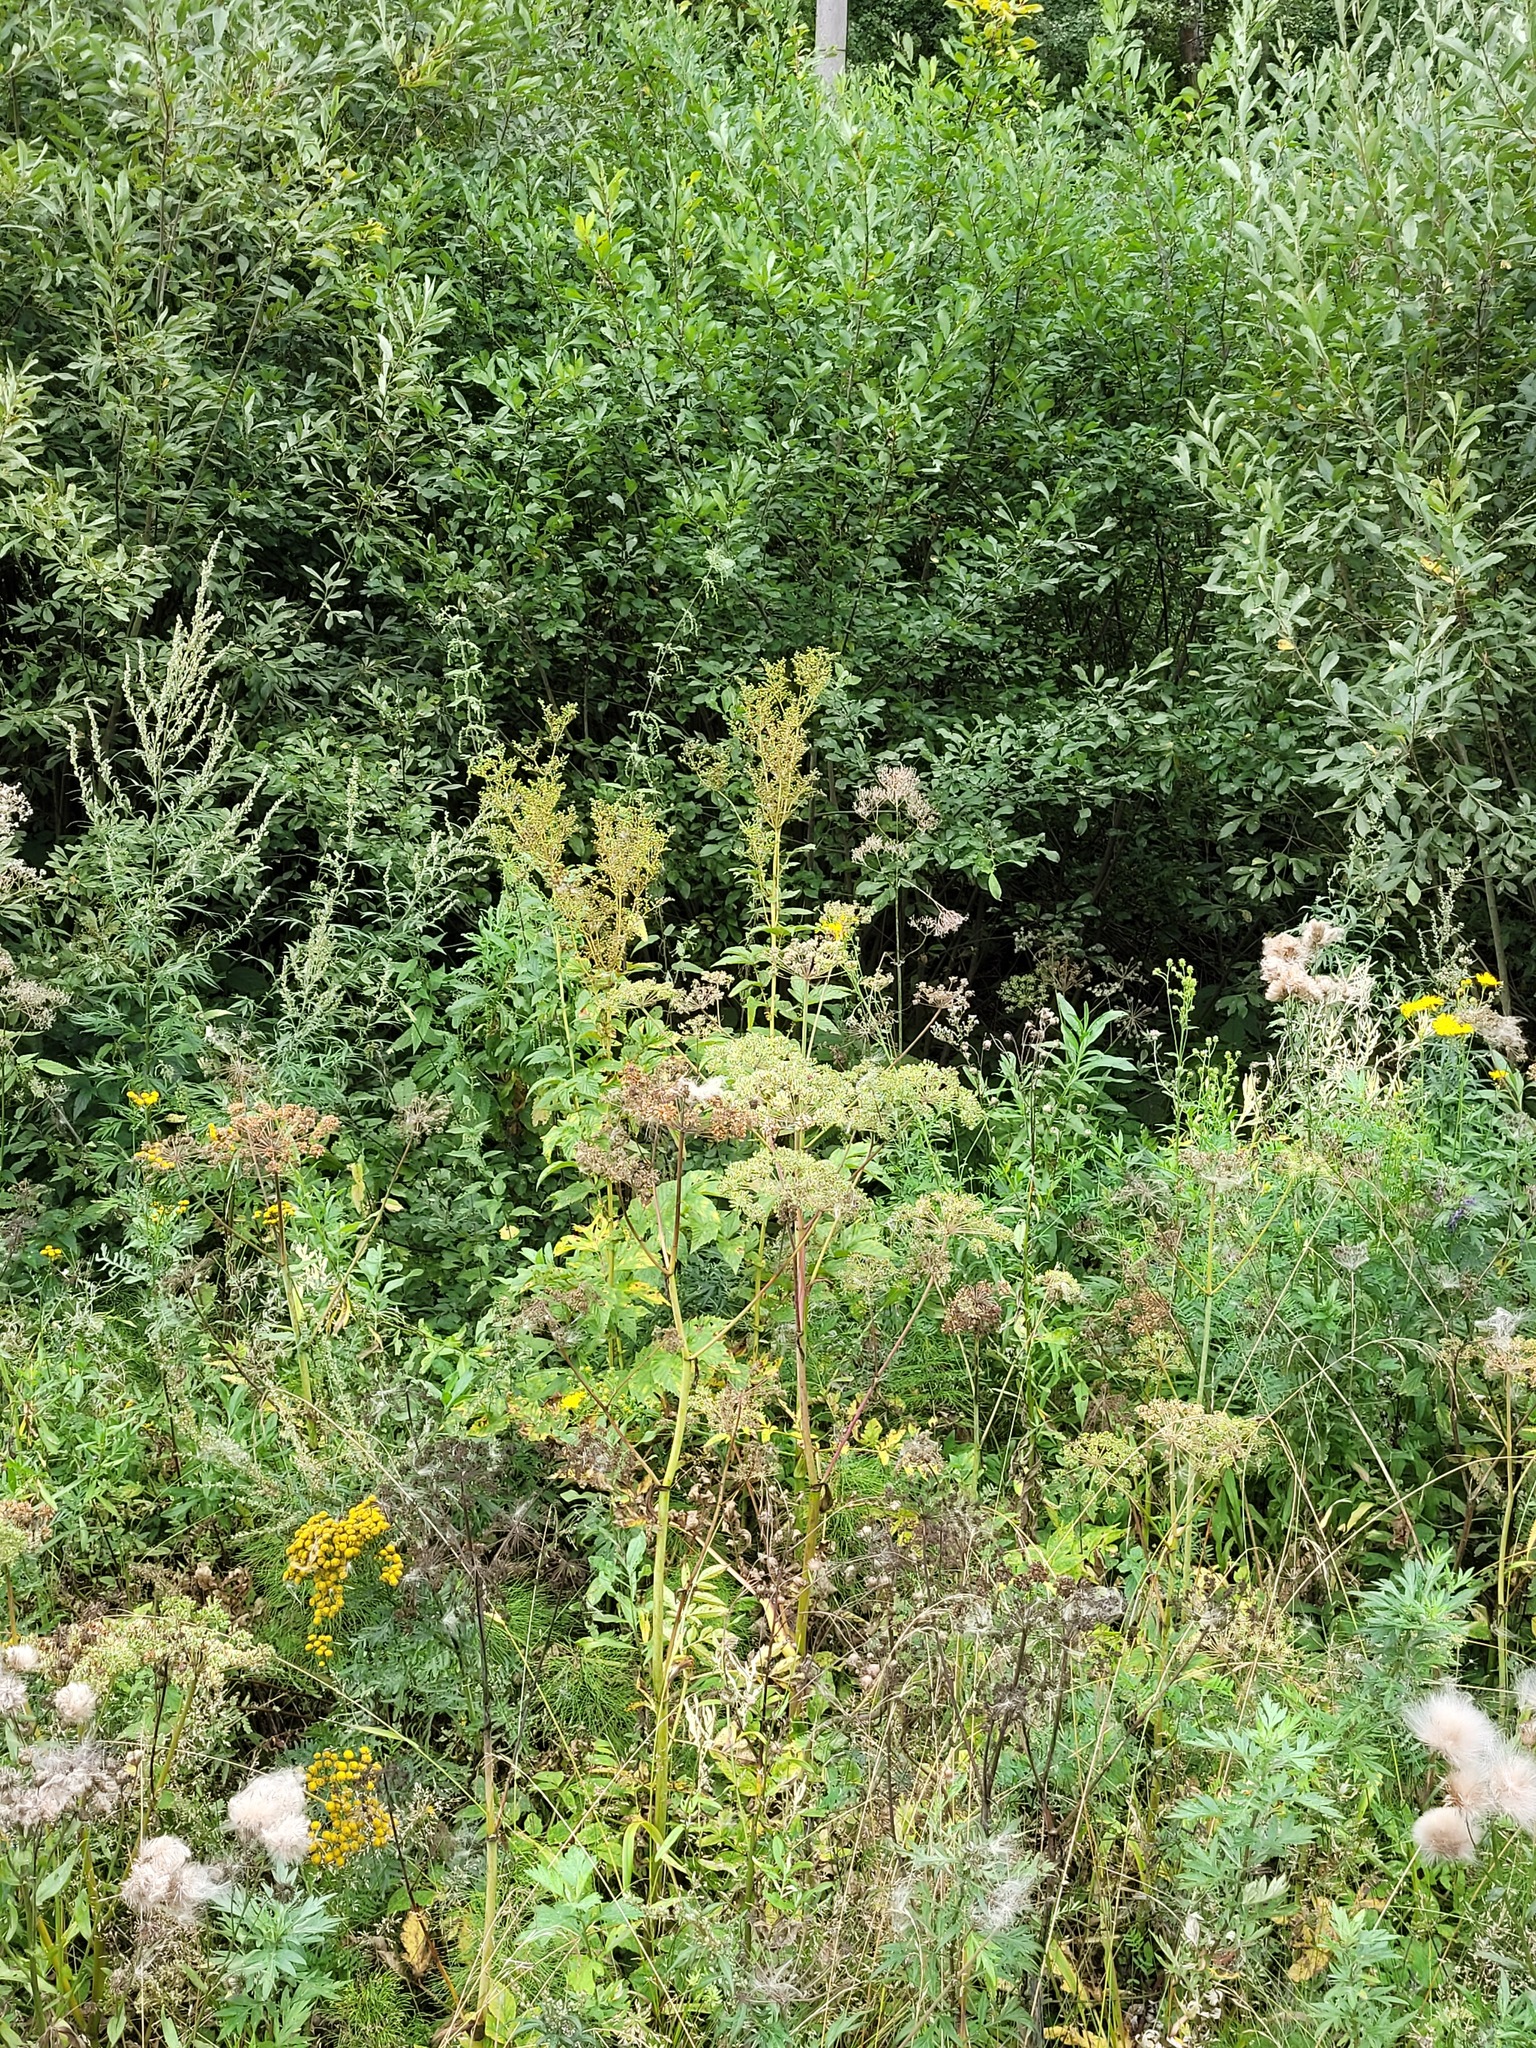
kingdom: Plantae
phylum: Tracheophyta
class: Magnoliopsida
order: Rosales
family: Rosaceae
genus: Filipendula
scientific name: Filipendula ulmaria
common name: Meadowsweet
